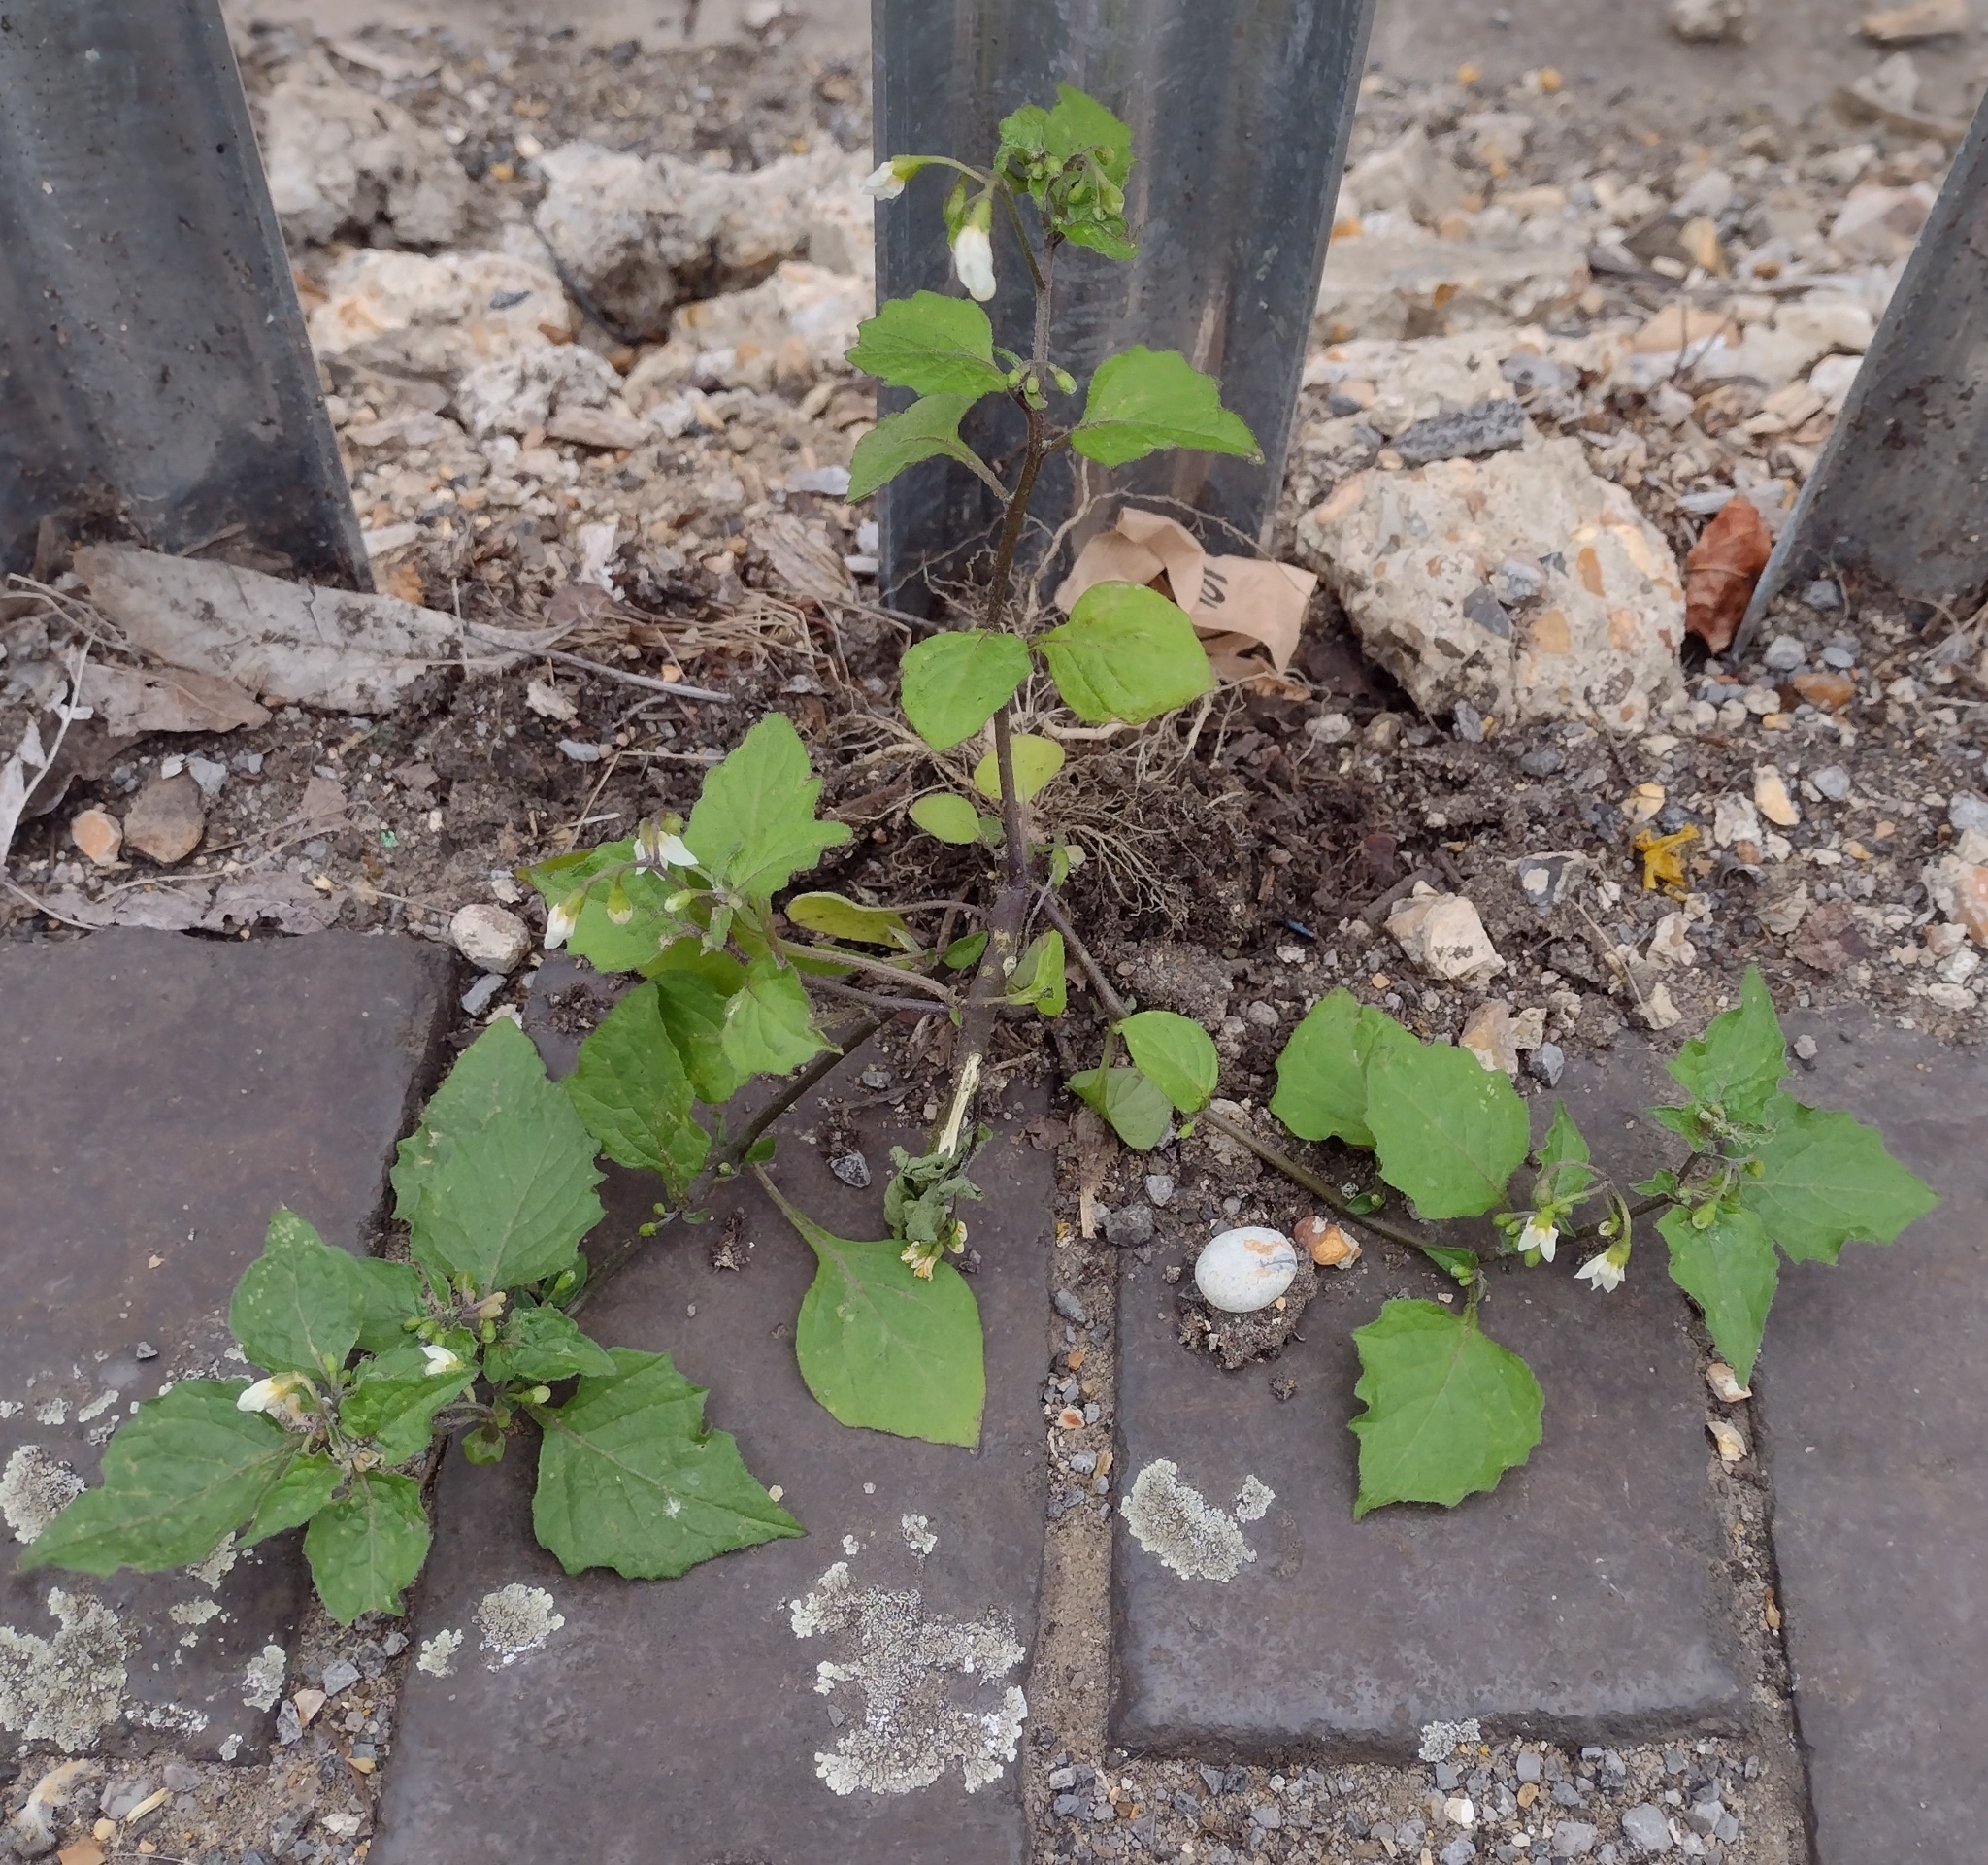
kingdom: Plantae
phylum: Tracheophyta
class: Magnoliopsida
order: Solanales
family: Solanaceae
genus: Solanum
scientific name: Solanum nigrum
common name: Black nightshade
